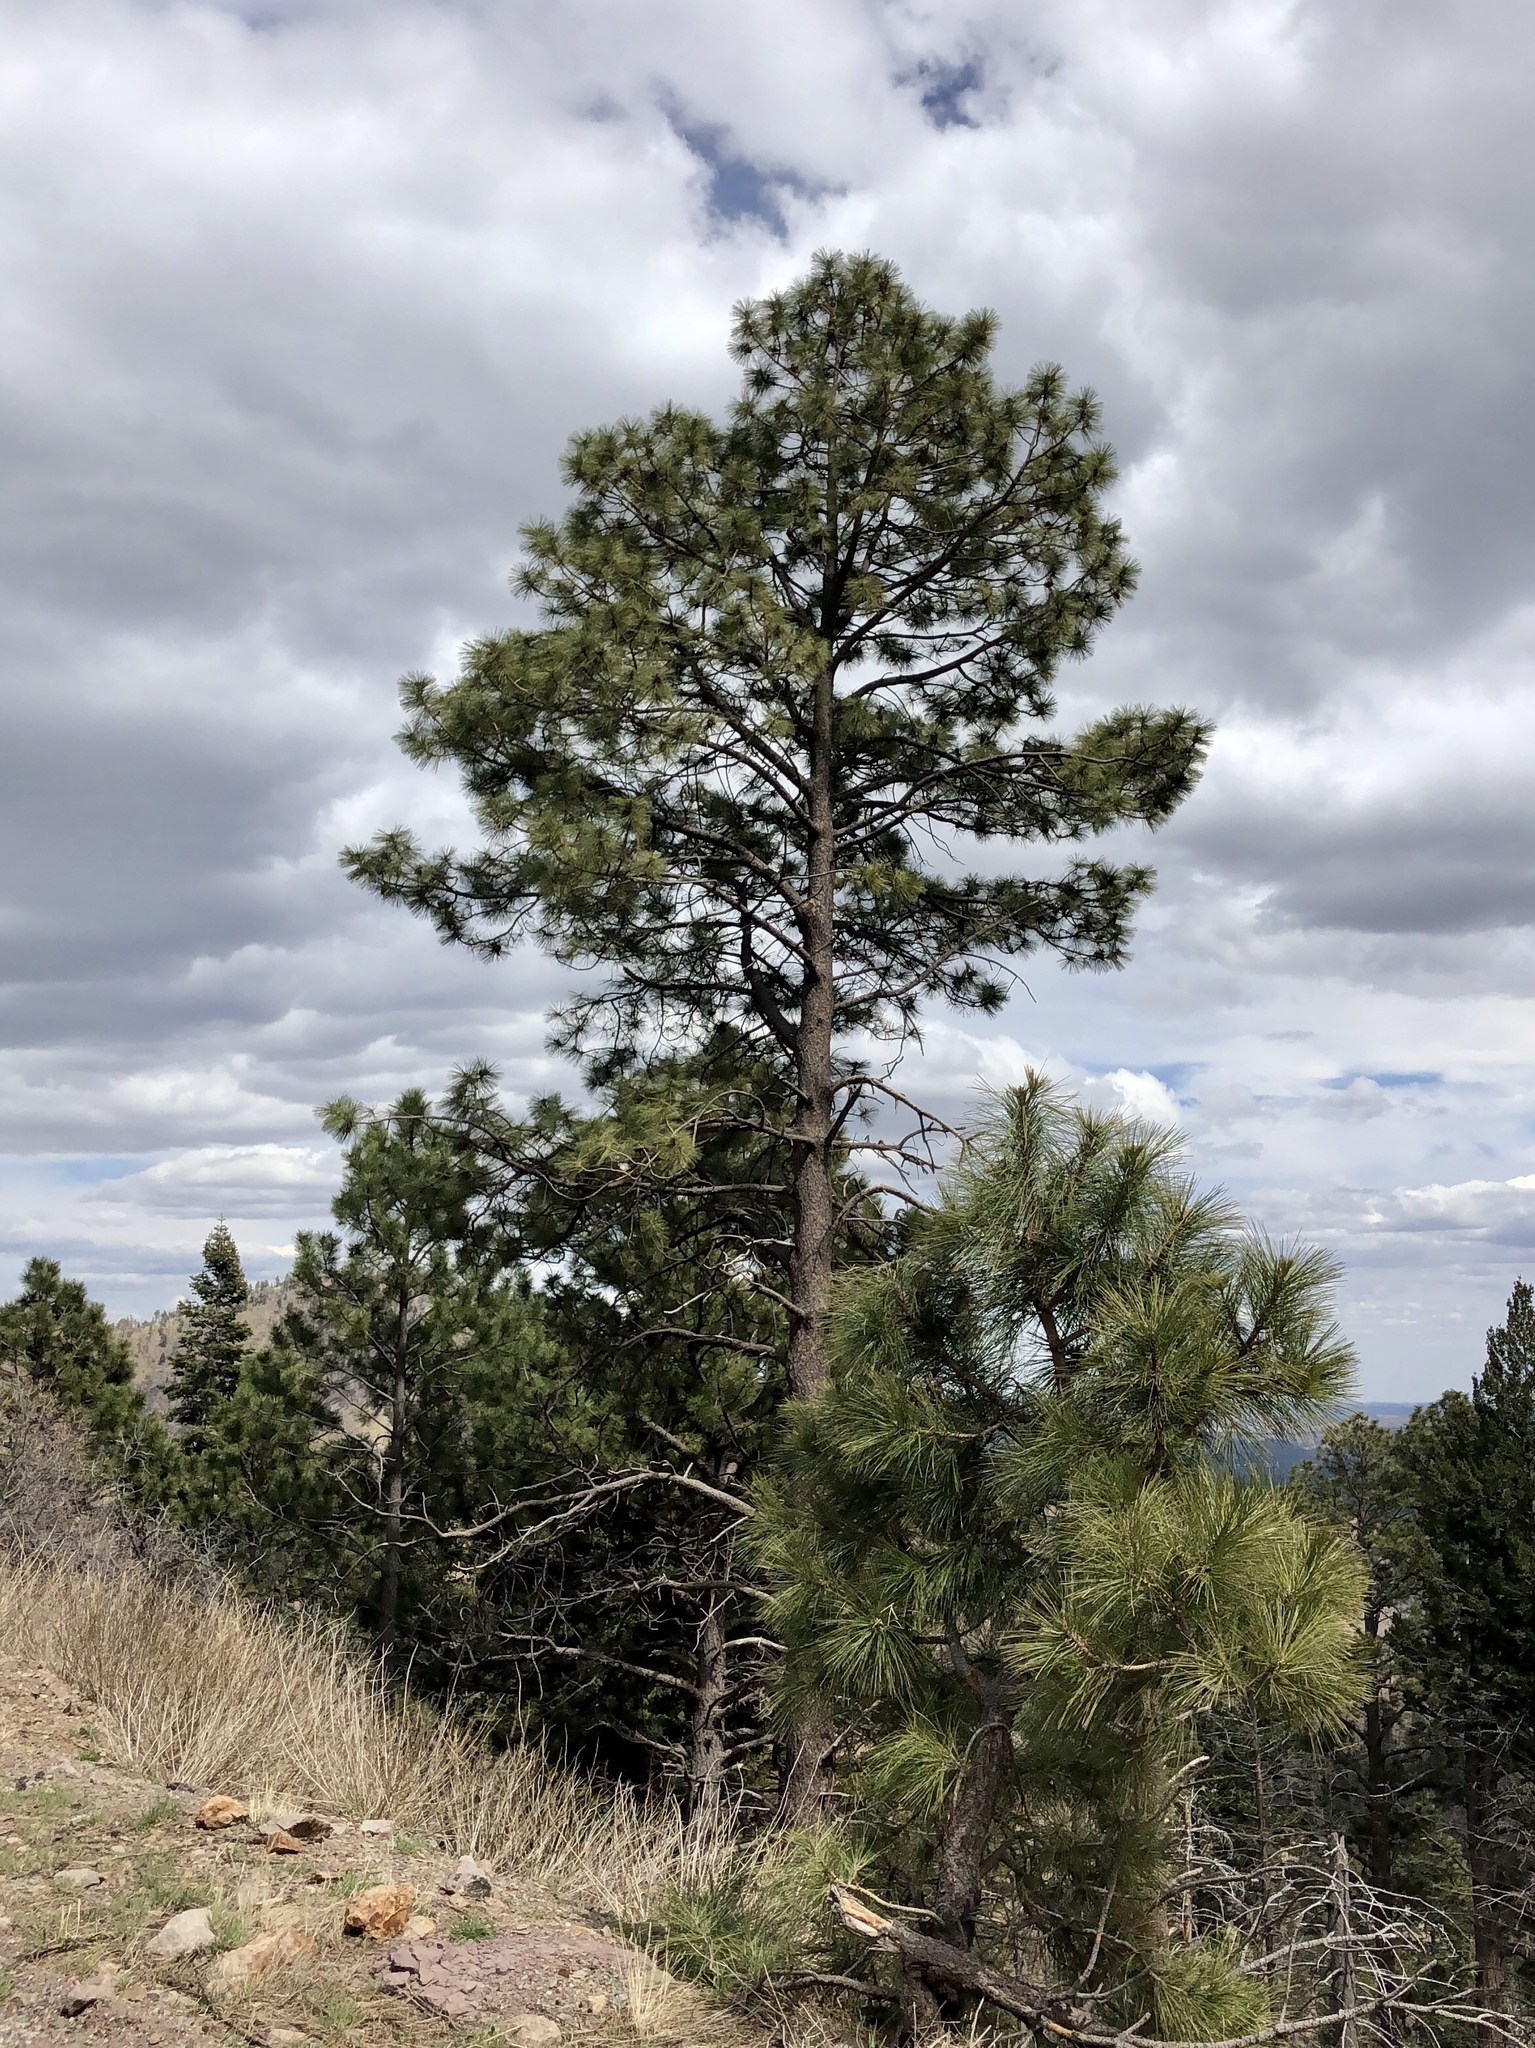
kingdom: Plantae
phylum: Tracheophyta
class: Pinopsida
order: Pinales
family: Pinaceae
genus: Pinus
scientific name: Pinus ponderosa
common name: Western yellow-pine
